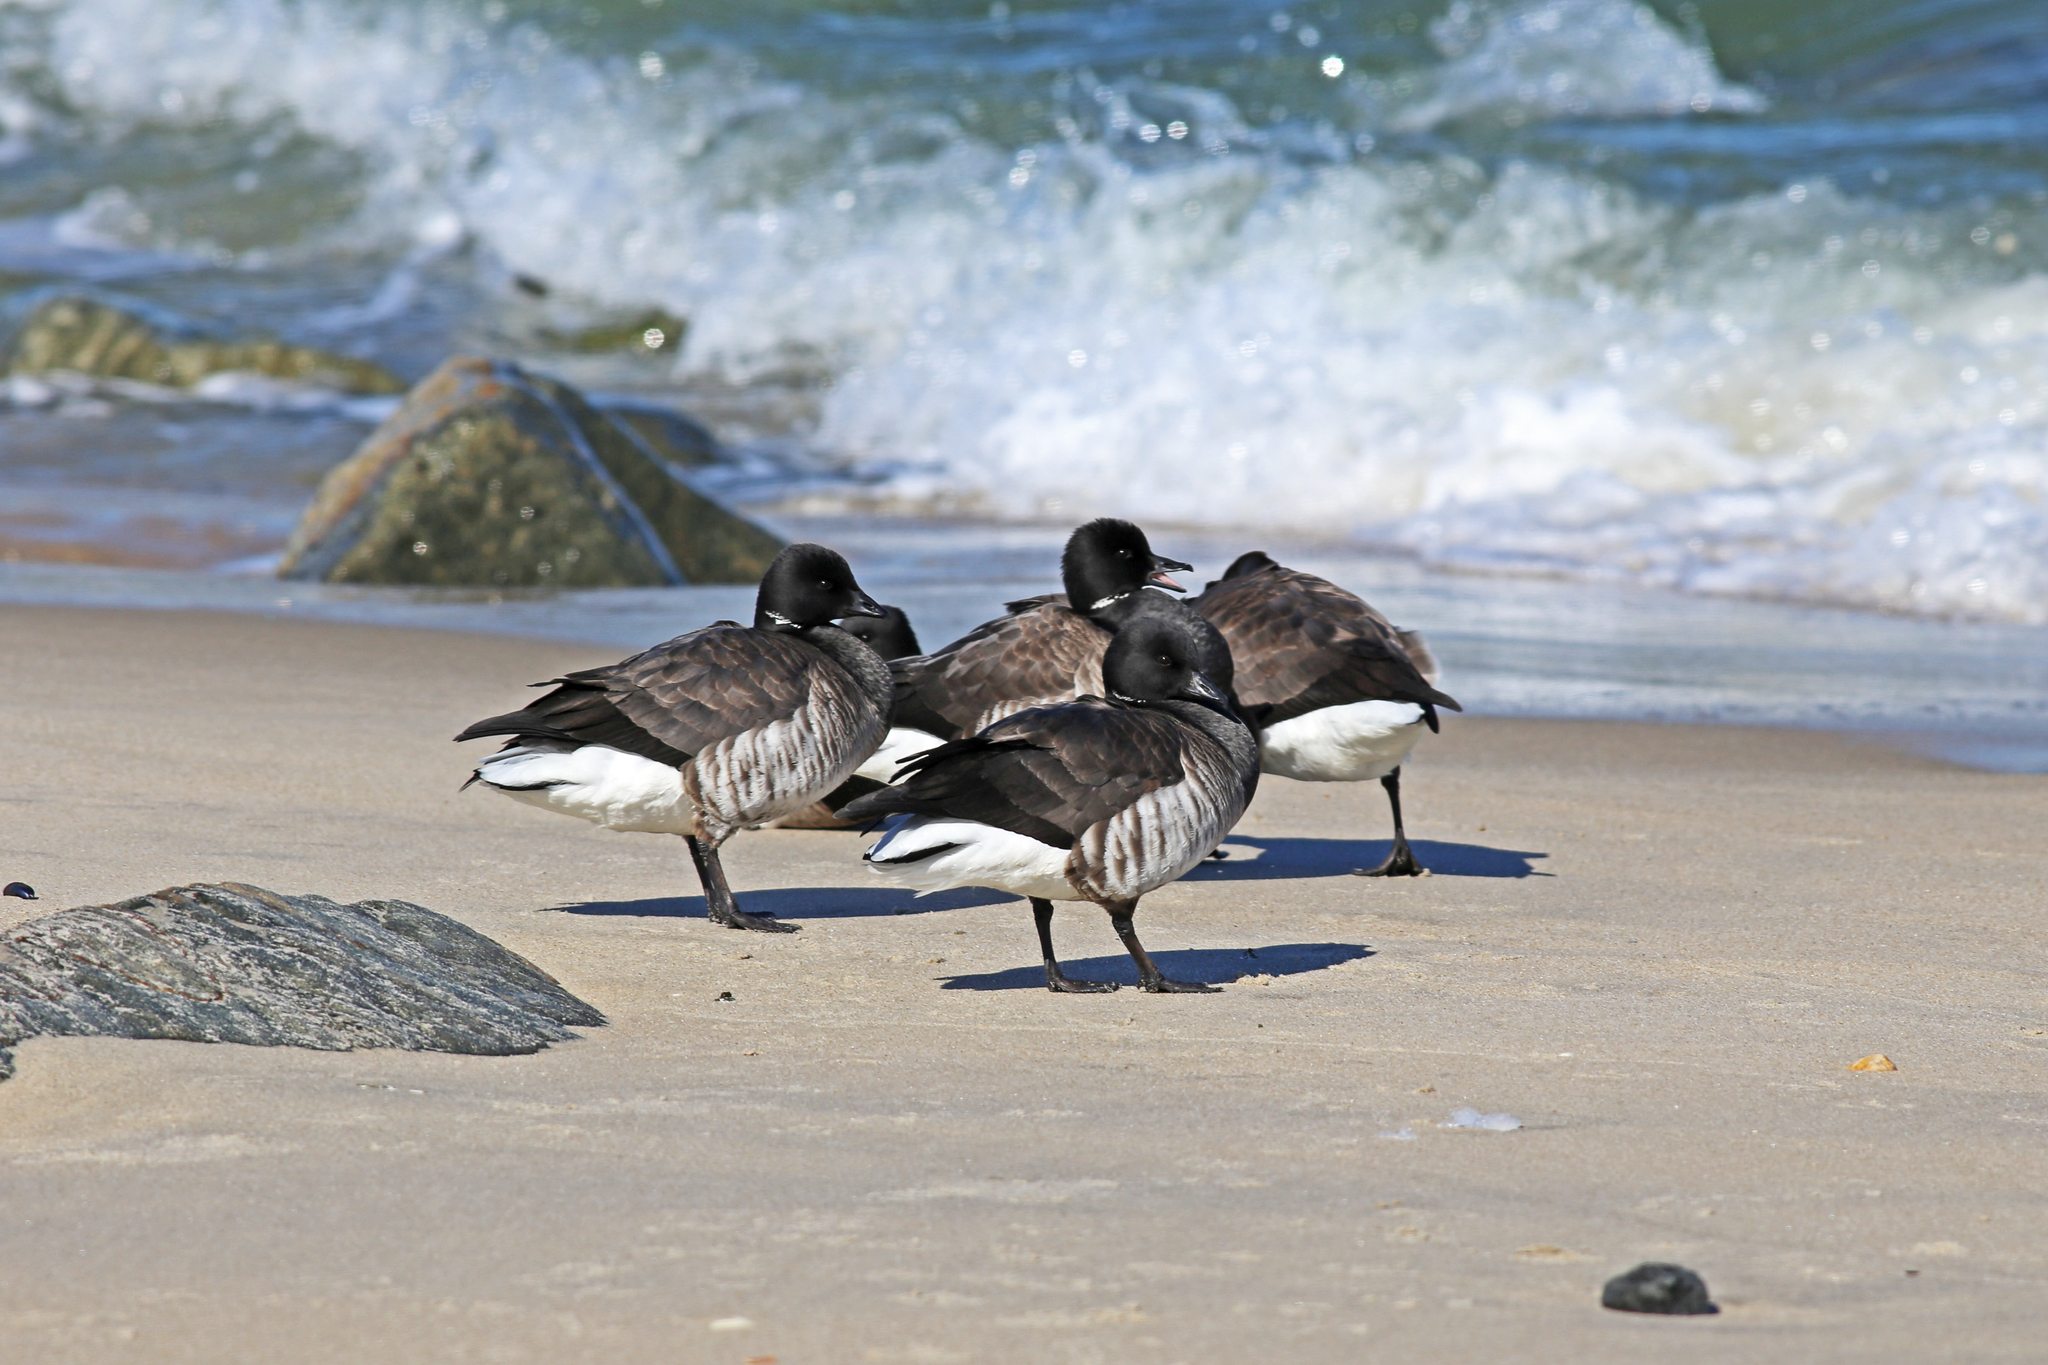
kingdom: Animalia
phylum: Chordata
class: Aves
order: Anseriformes
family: Anatidae
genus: Branta
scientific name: Branta bernicla
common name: Brant goose
